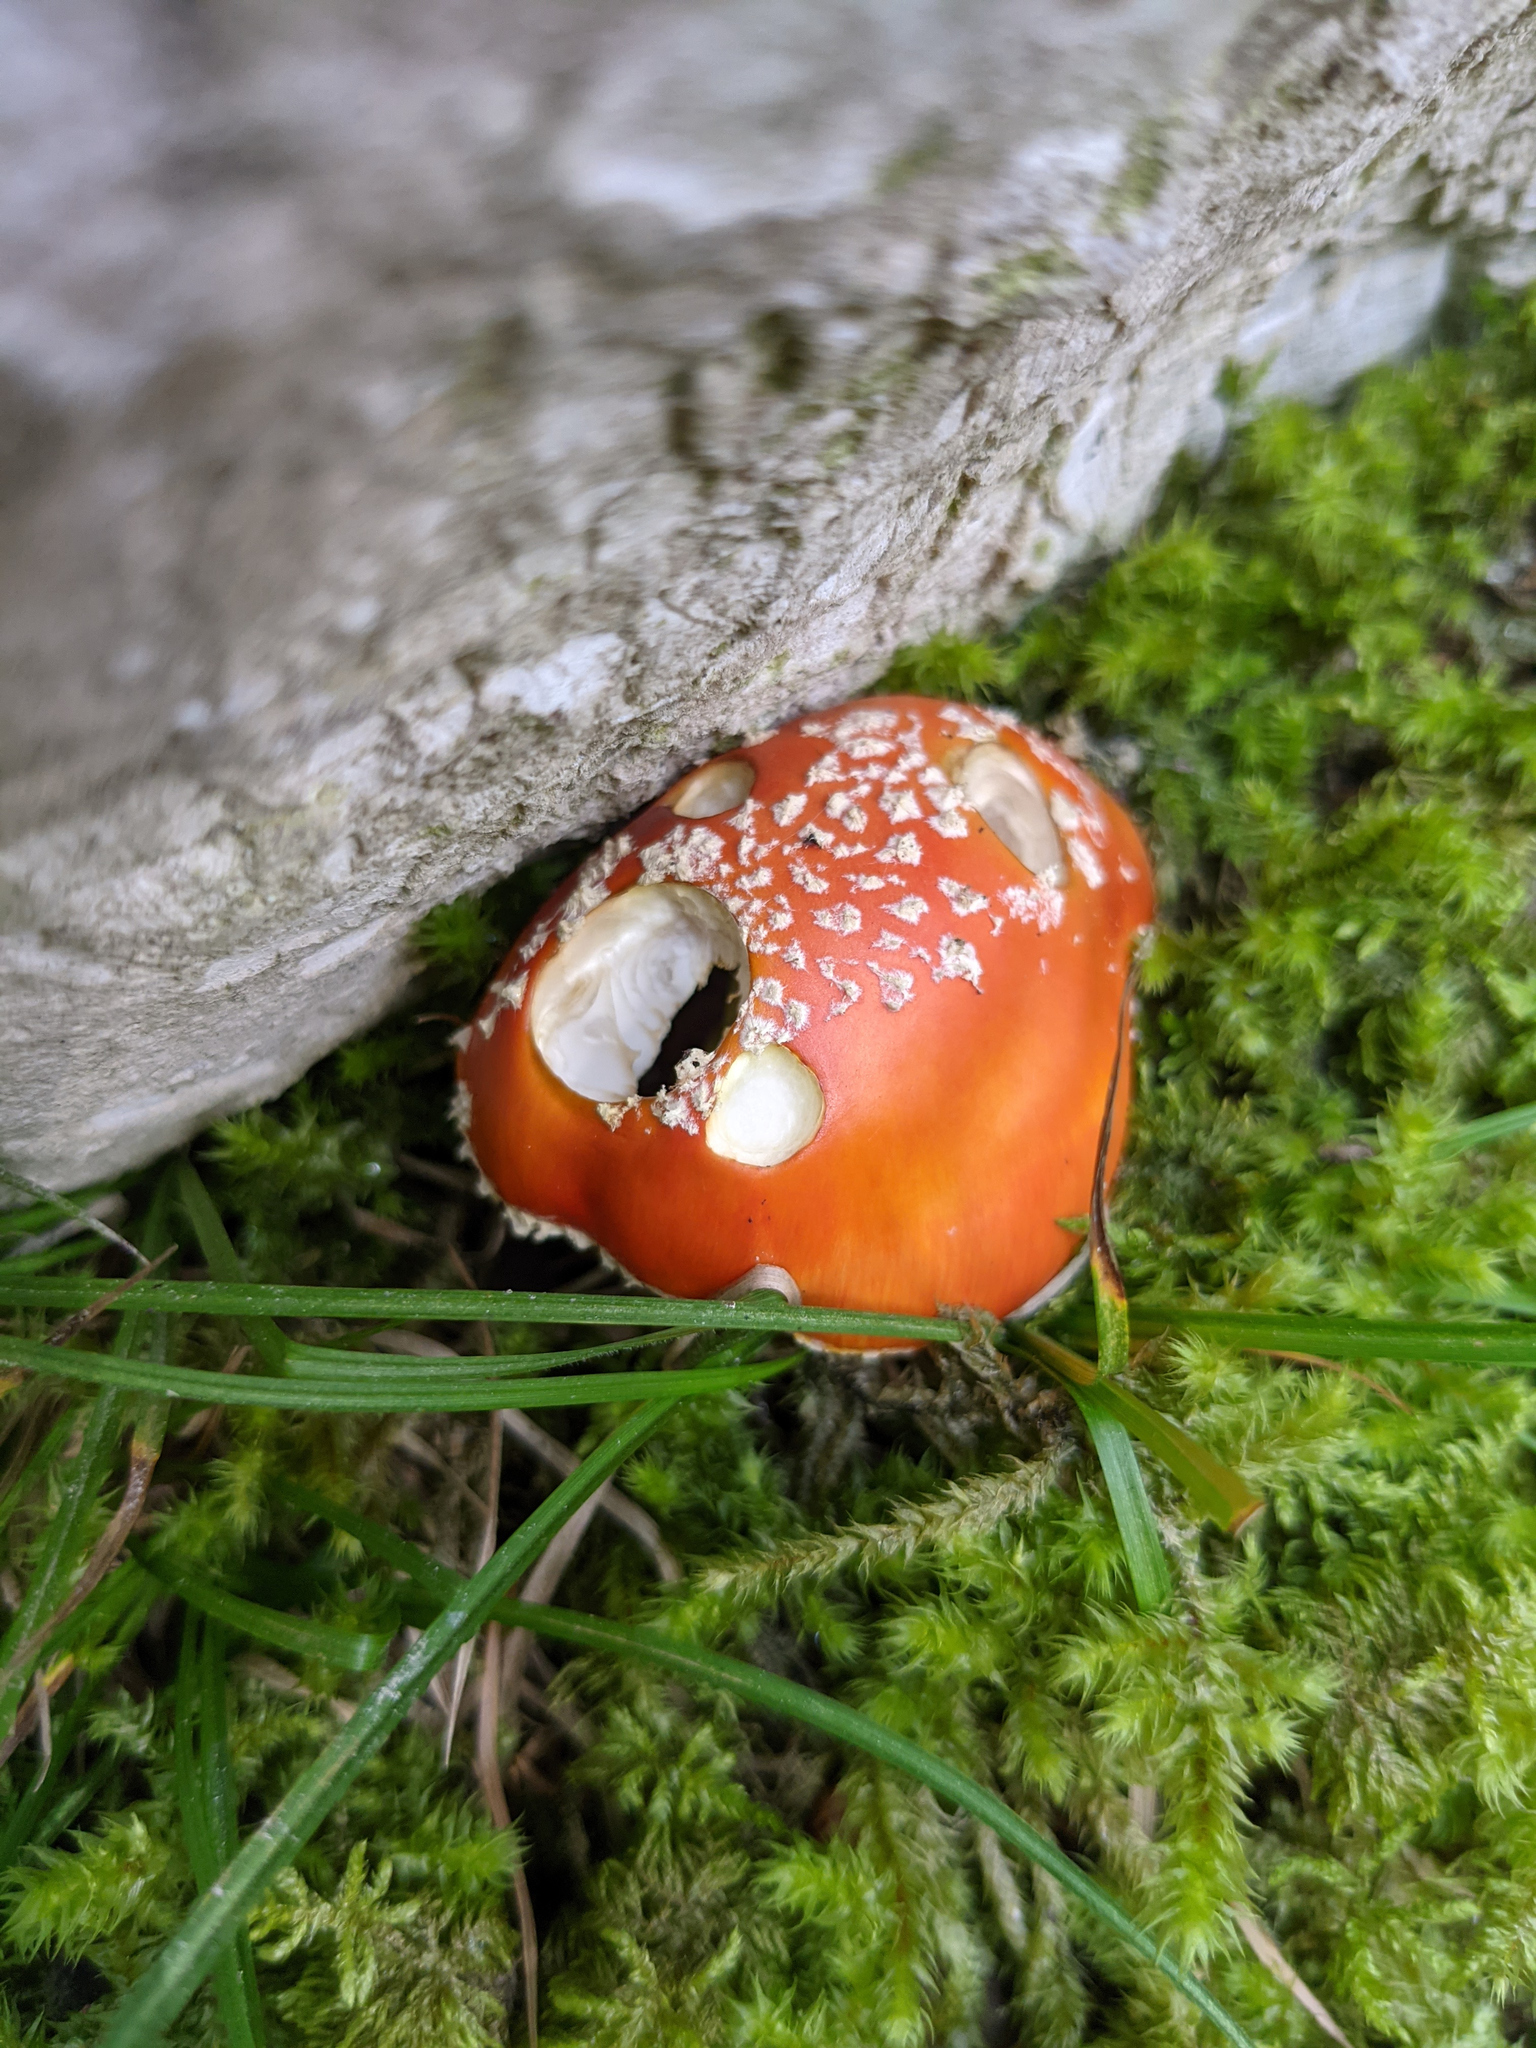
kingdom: Fungi
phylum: Basidiomycota
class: Agaricomycetes
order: Agaricales
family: Amanitaceae
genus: Amanita
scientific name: Amanita muscaria
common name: Fly agaric
